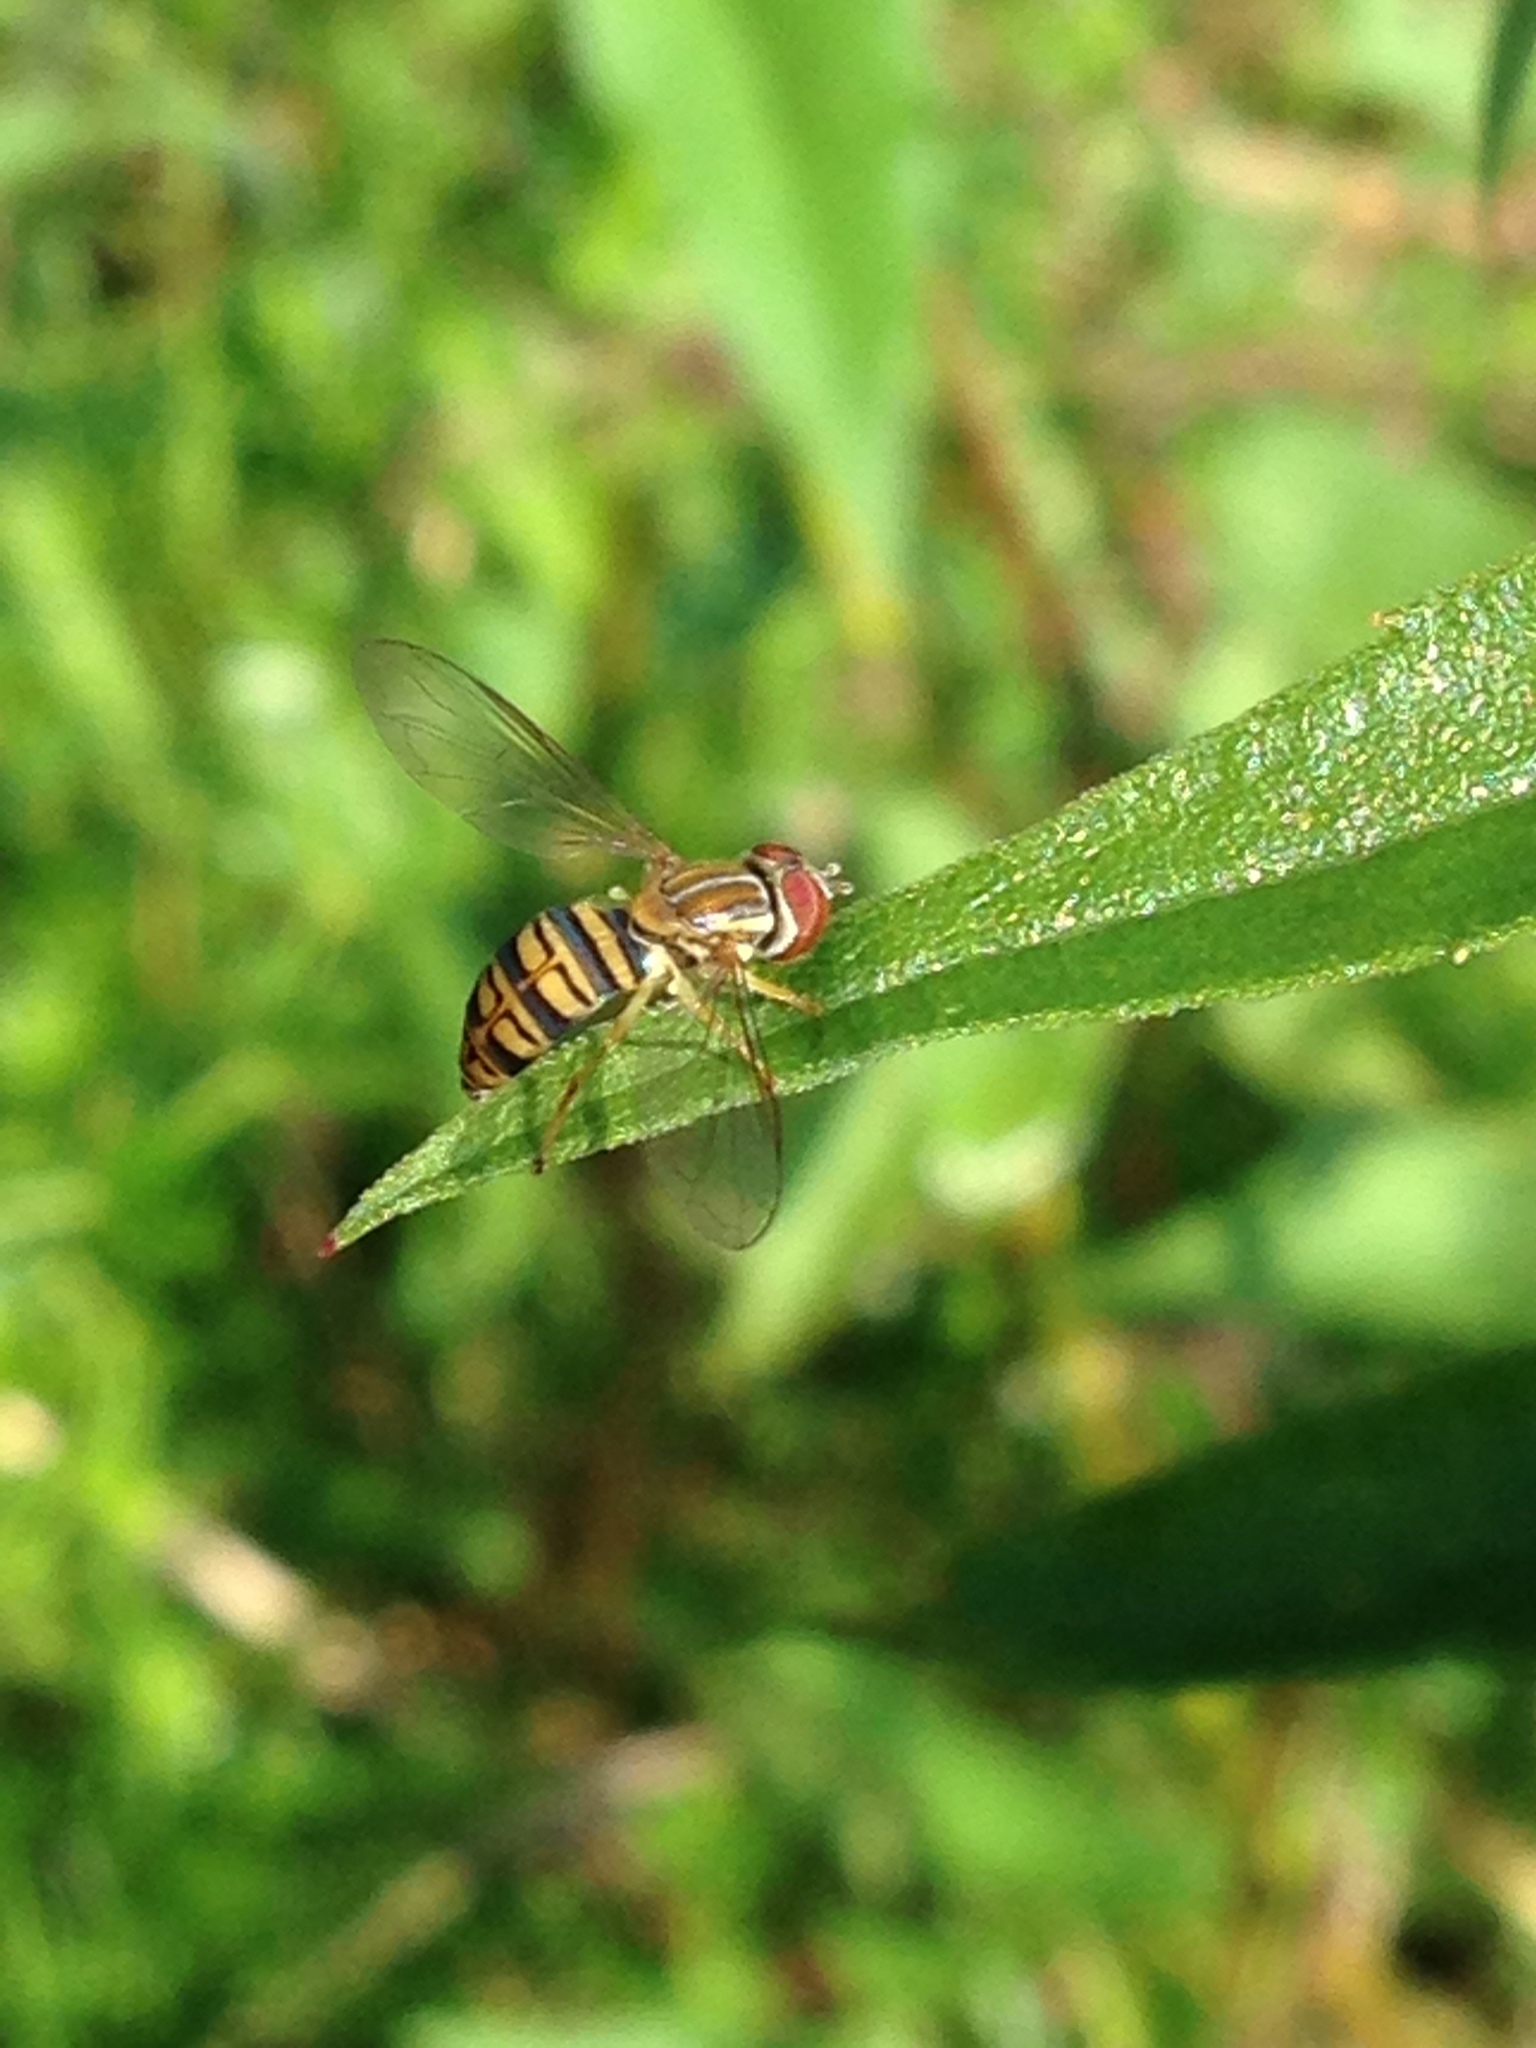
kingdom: Animalia
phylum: Arthropoda
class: Insecta
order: Diptera
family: Syrphidae
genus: Toxomerus
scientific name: Toxomerus politus
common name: Maize calligrapher
